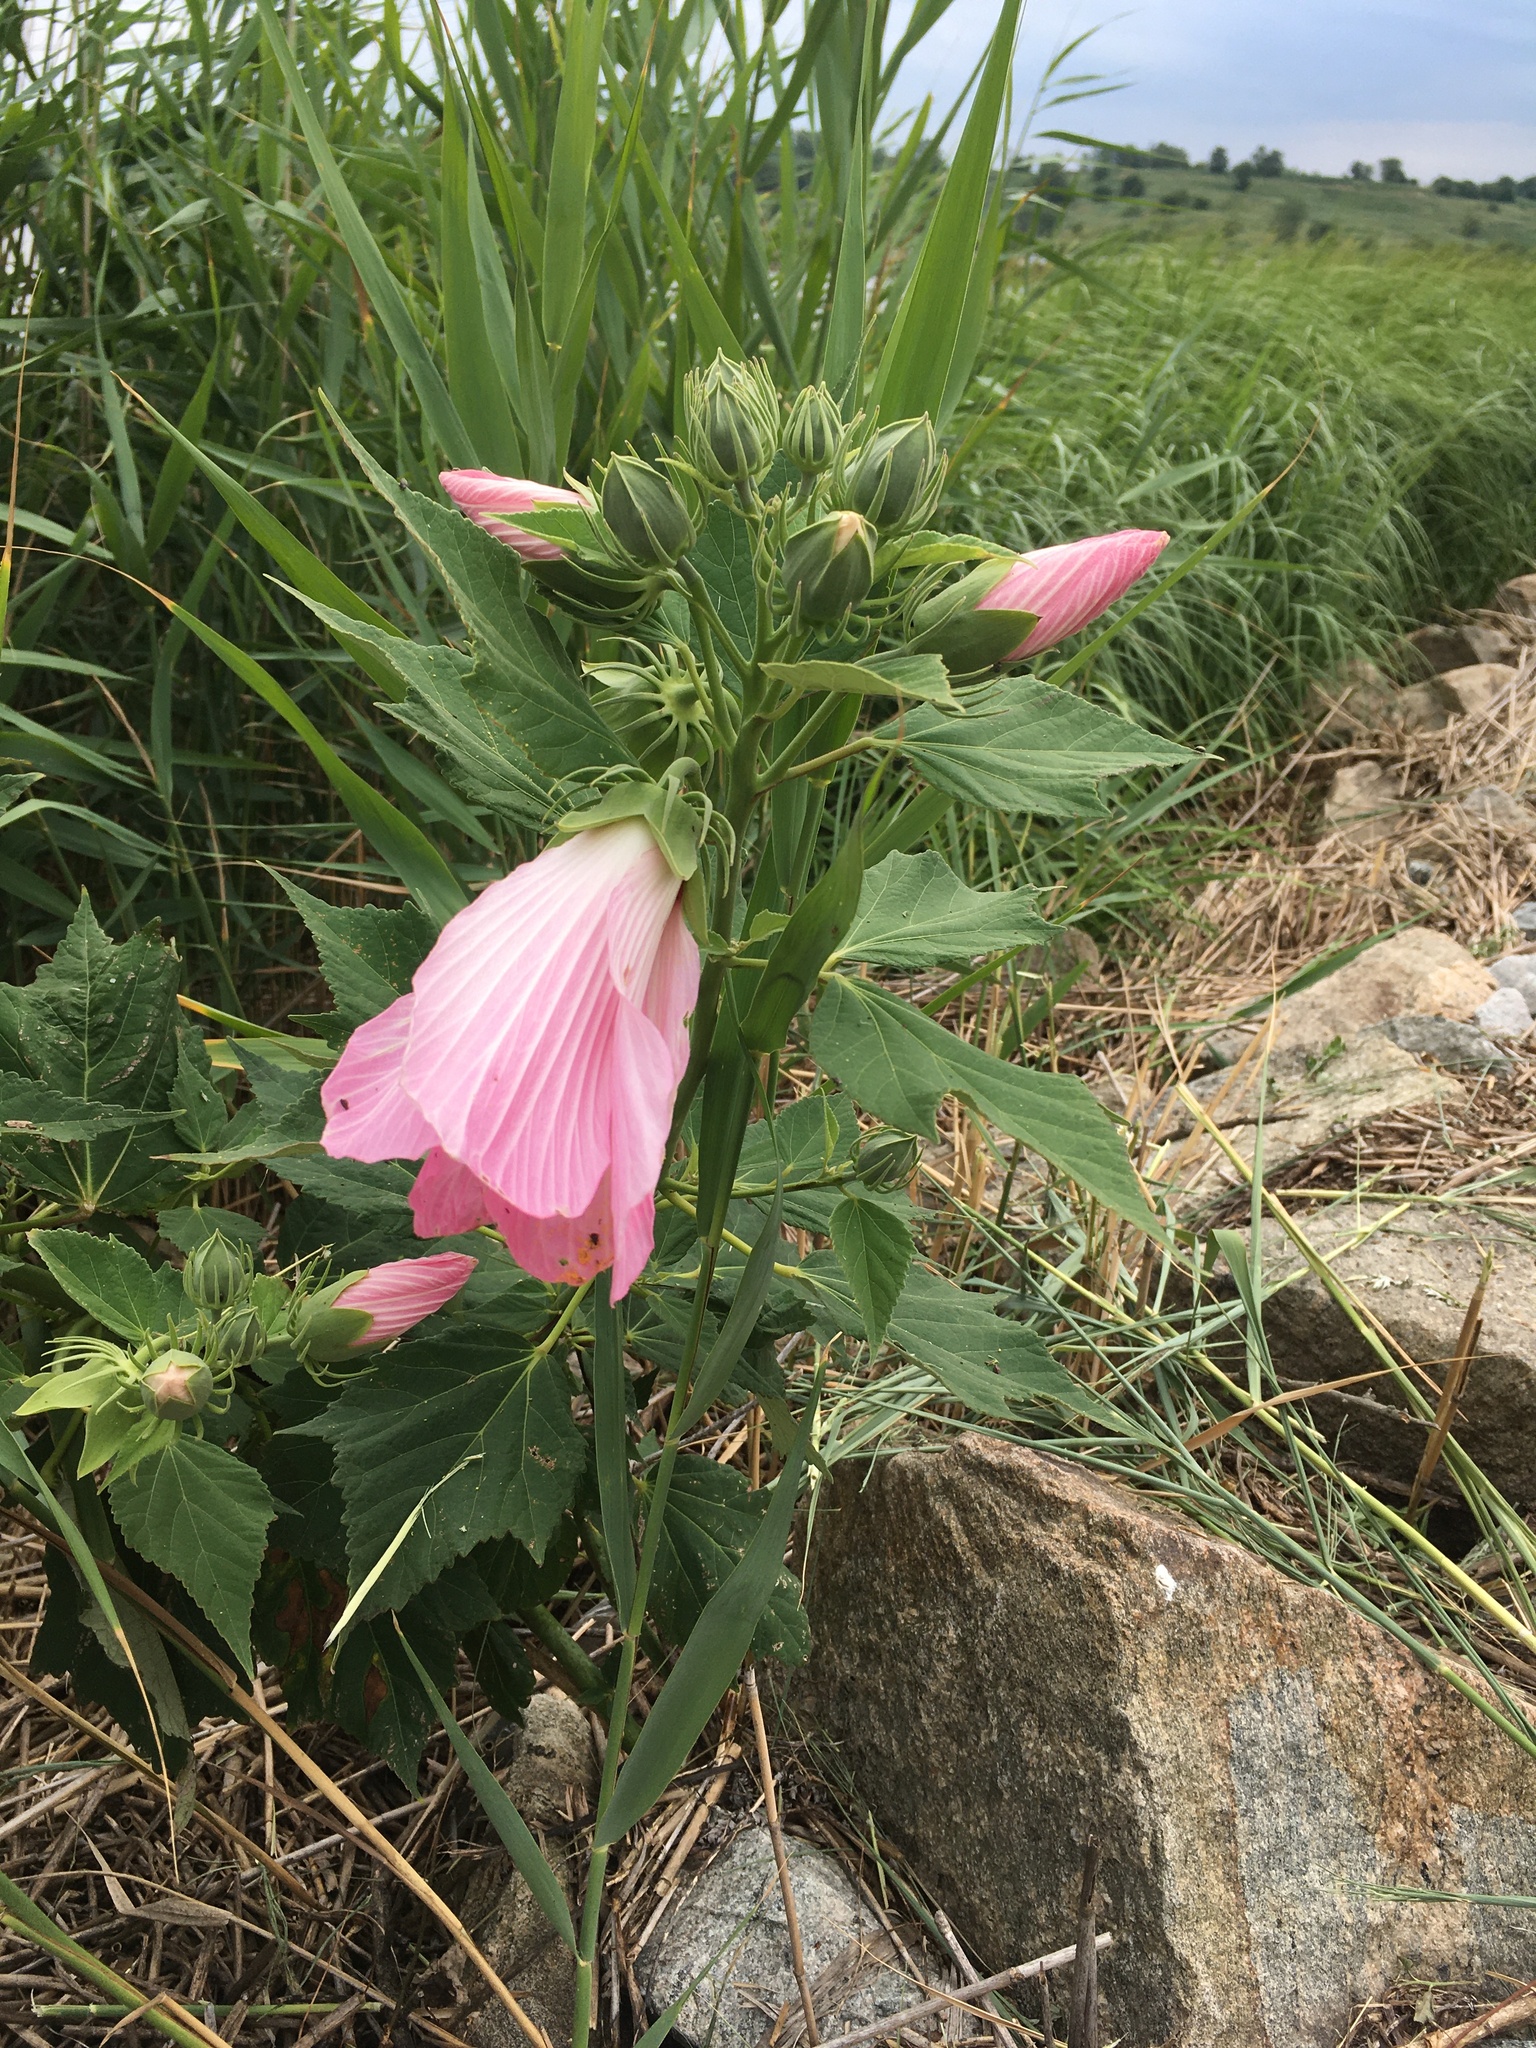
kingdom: Plantae
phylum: Tracheophyta
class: Magnoliopsida
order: Malvales
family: Malvaceae
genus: Hibiscus
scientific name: Hibiscus moscheutos
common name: Common rose-mallow
